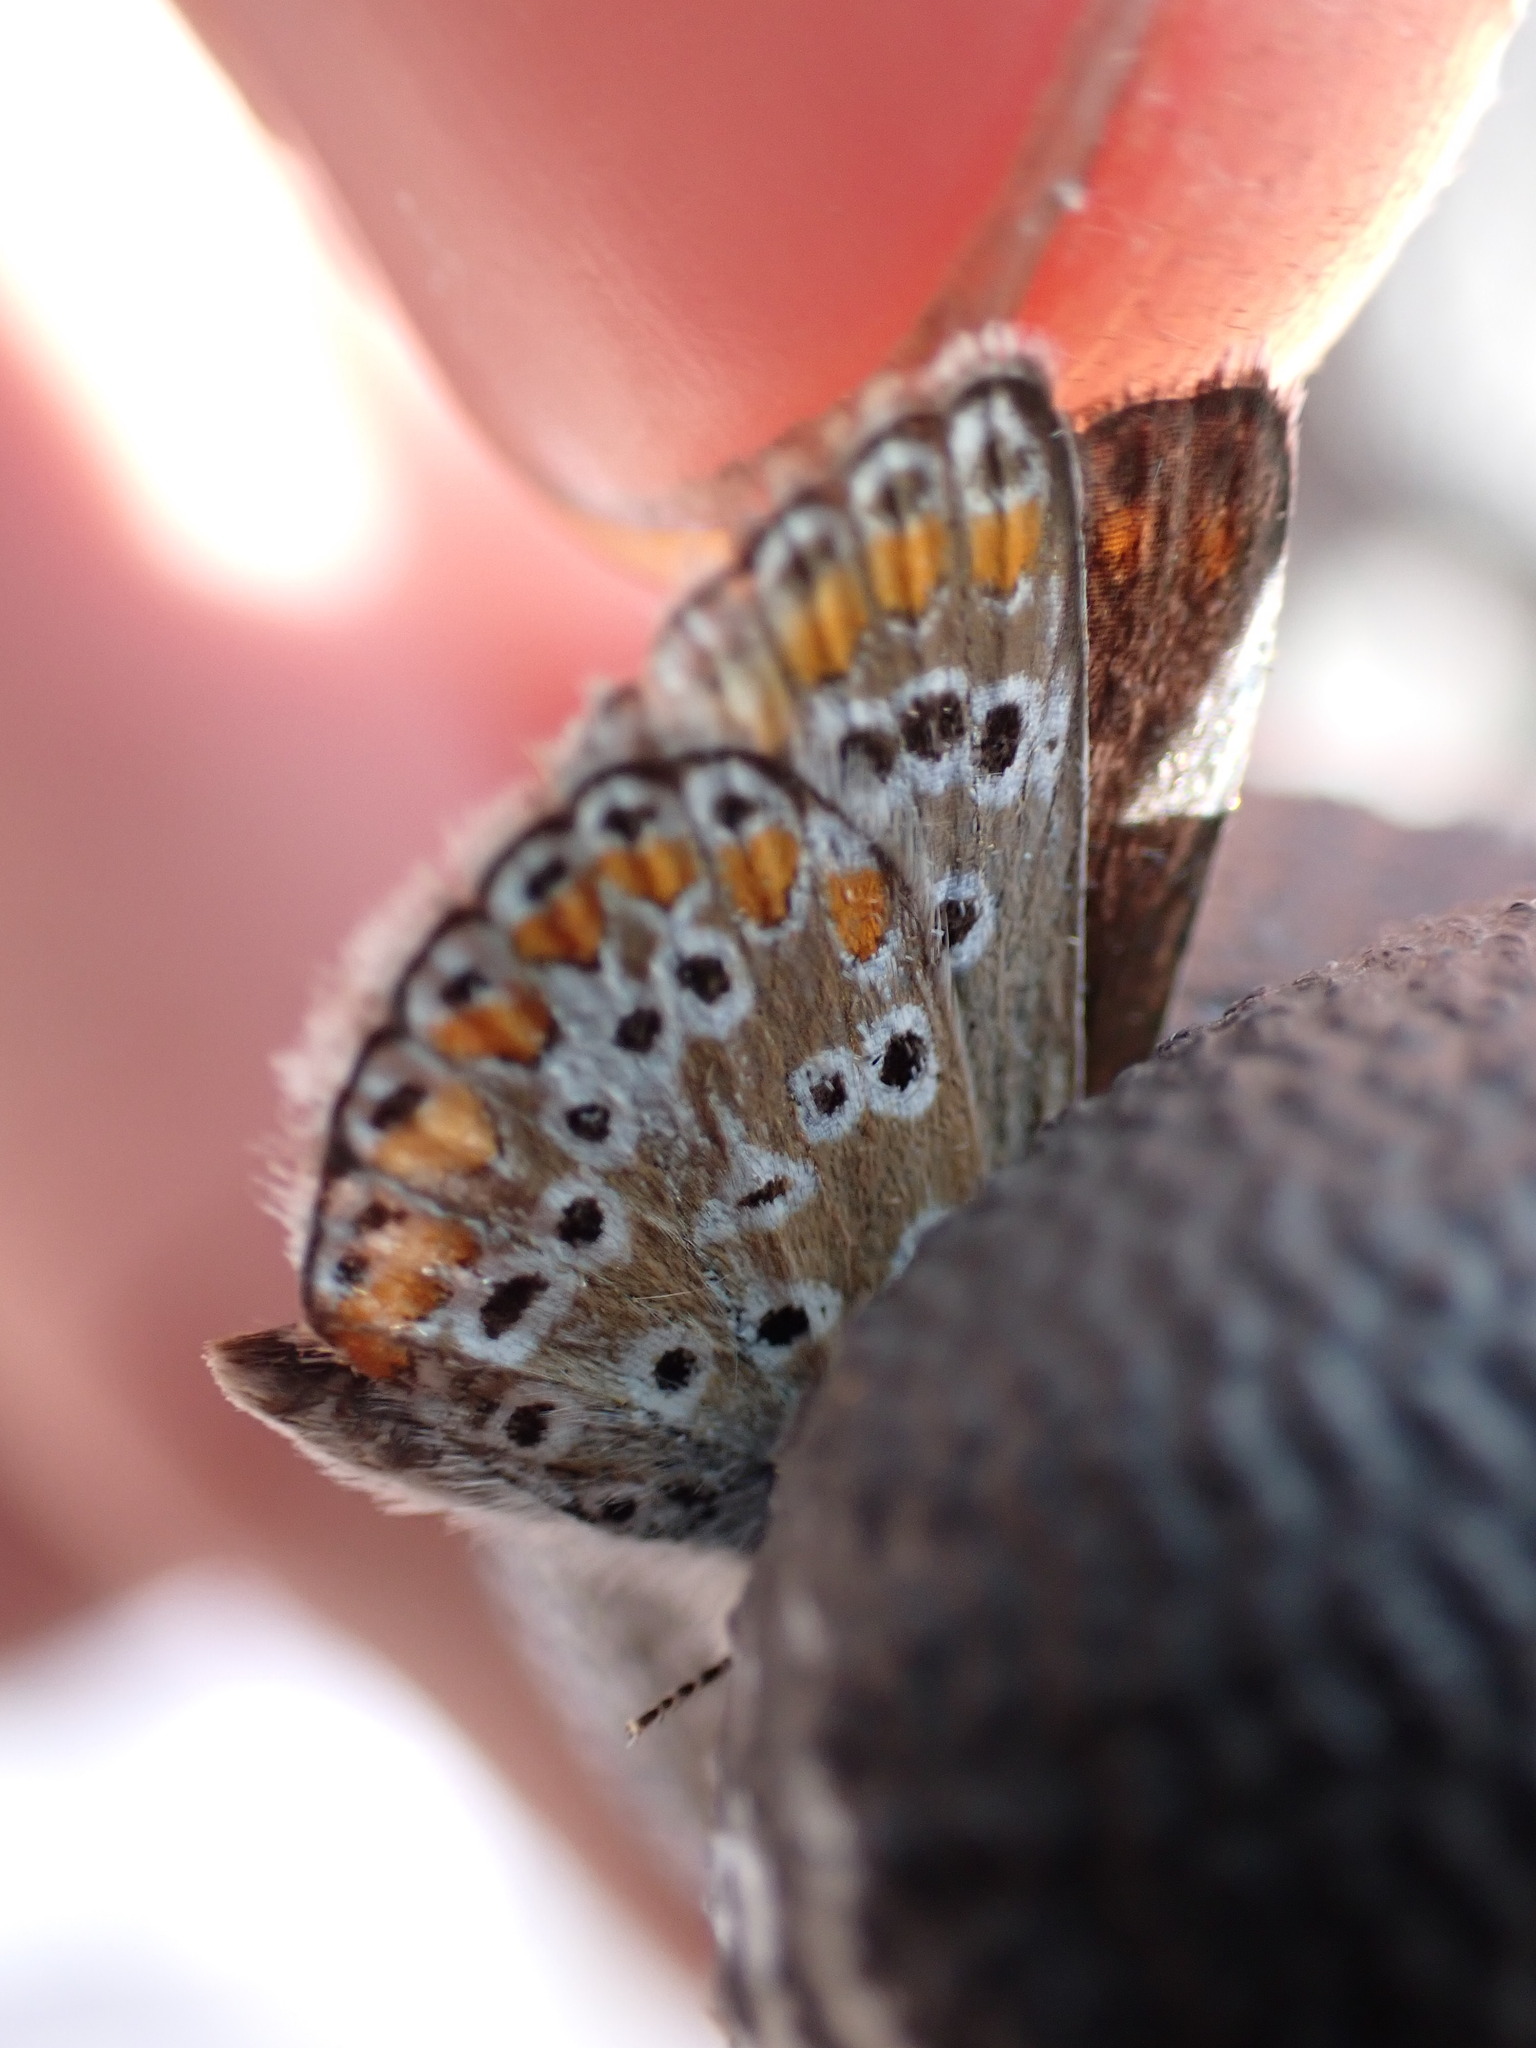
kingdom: Animalia
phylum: Arthropoda
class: Insecta
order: Lepidoptera
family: Lycaenidae
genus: Aricia
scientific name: Aricia agestis
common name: Brown argus
